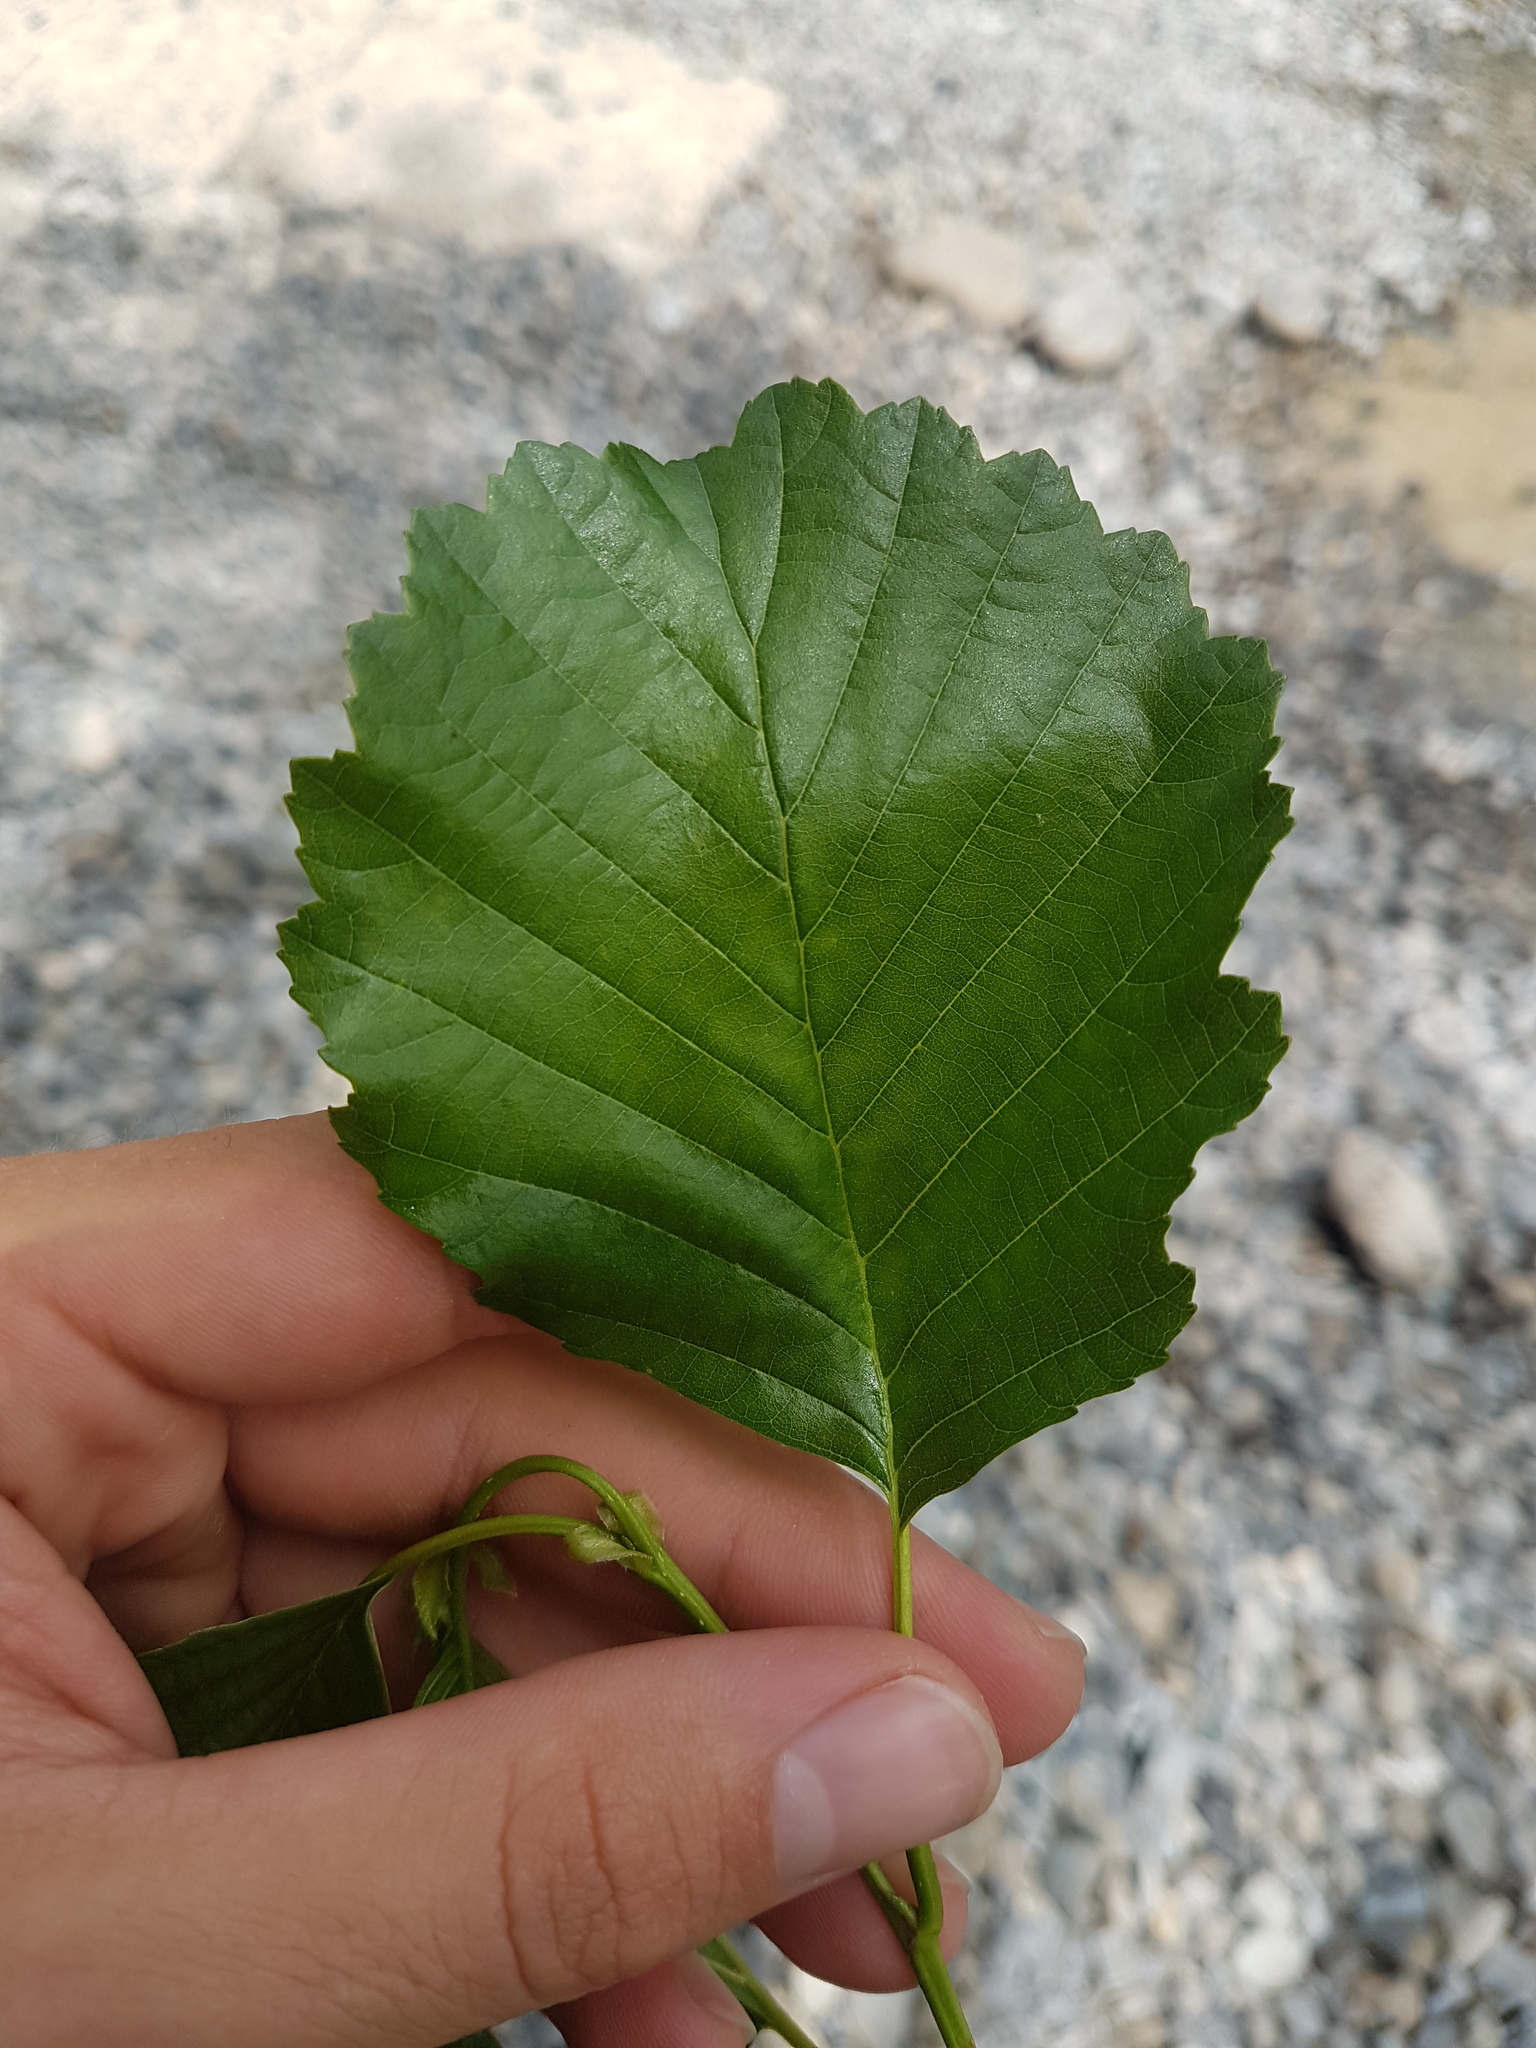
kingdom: Plantae
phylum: Tracheophyta
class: Magnoliopsida
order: Fagales
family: Betulaceae
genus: Alnus
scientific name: Alnus glutinosa
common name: Black alder
